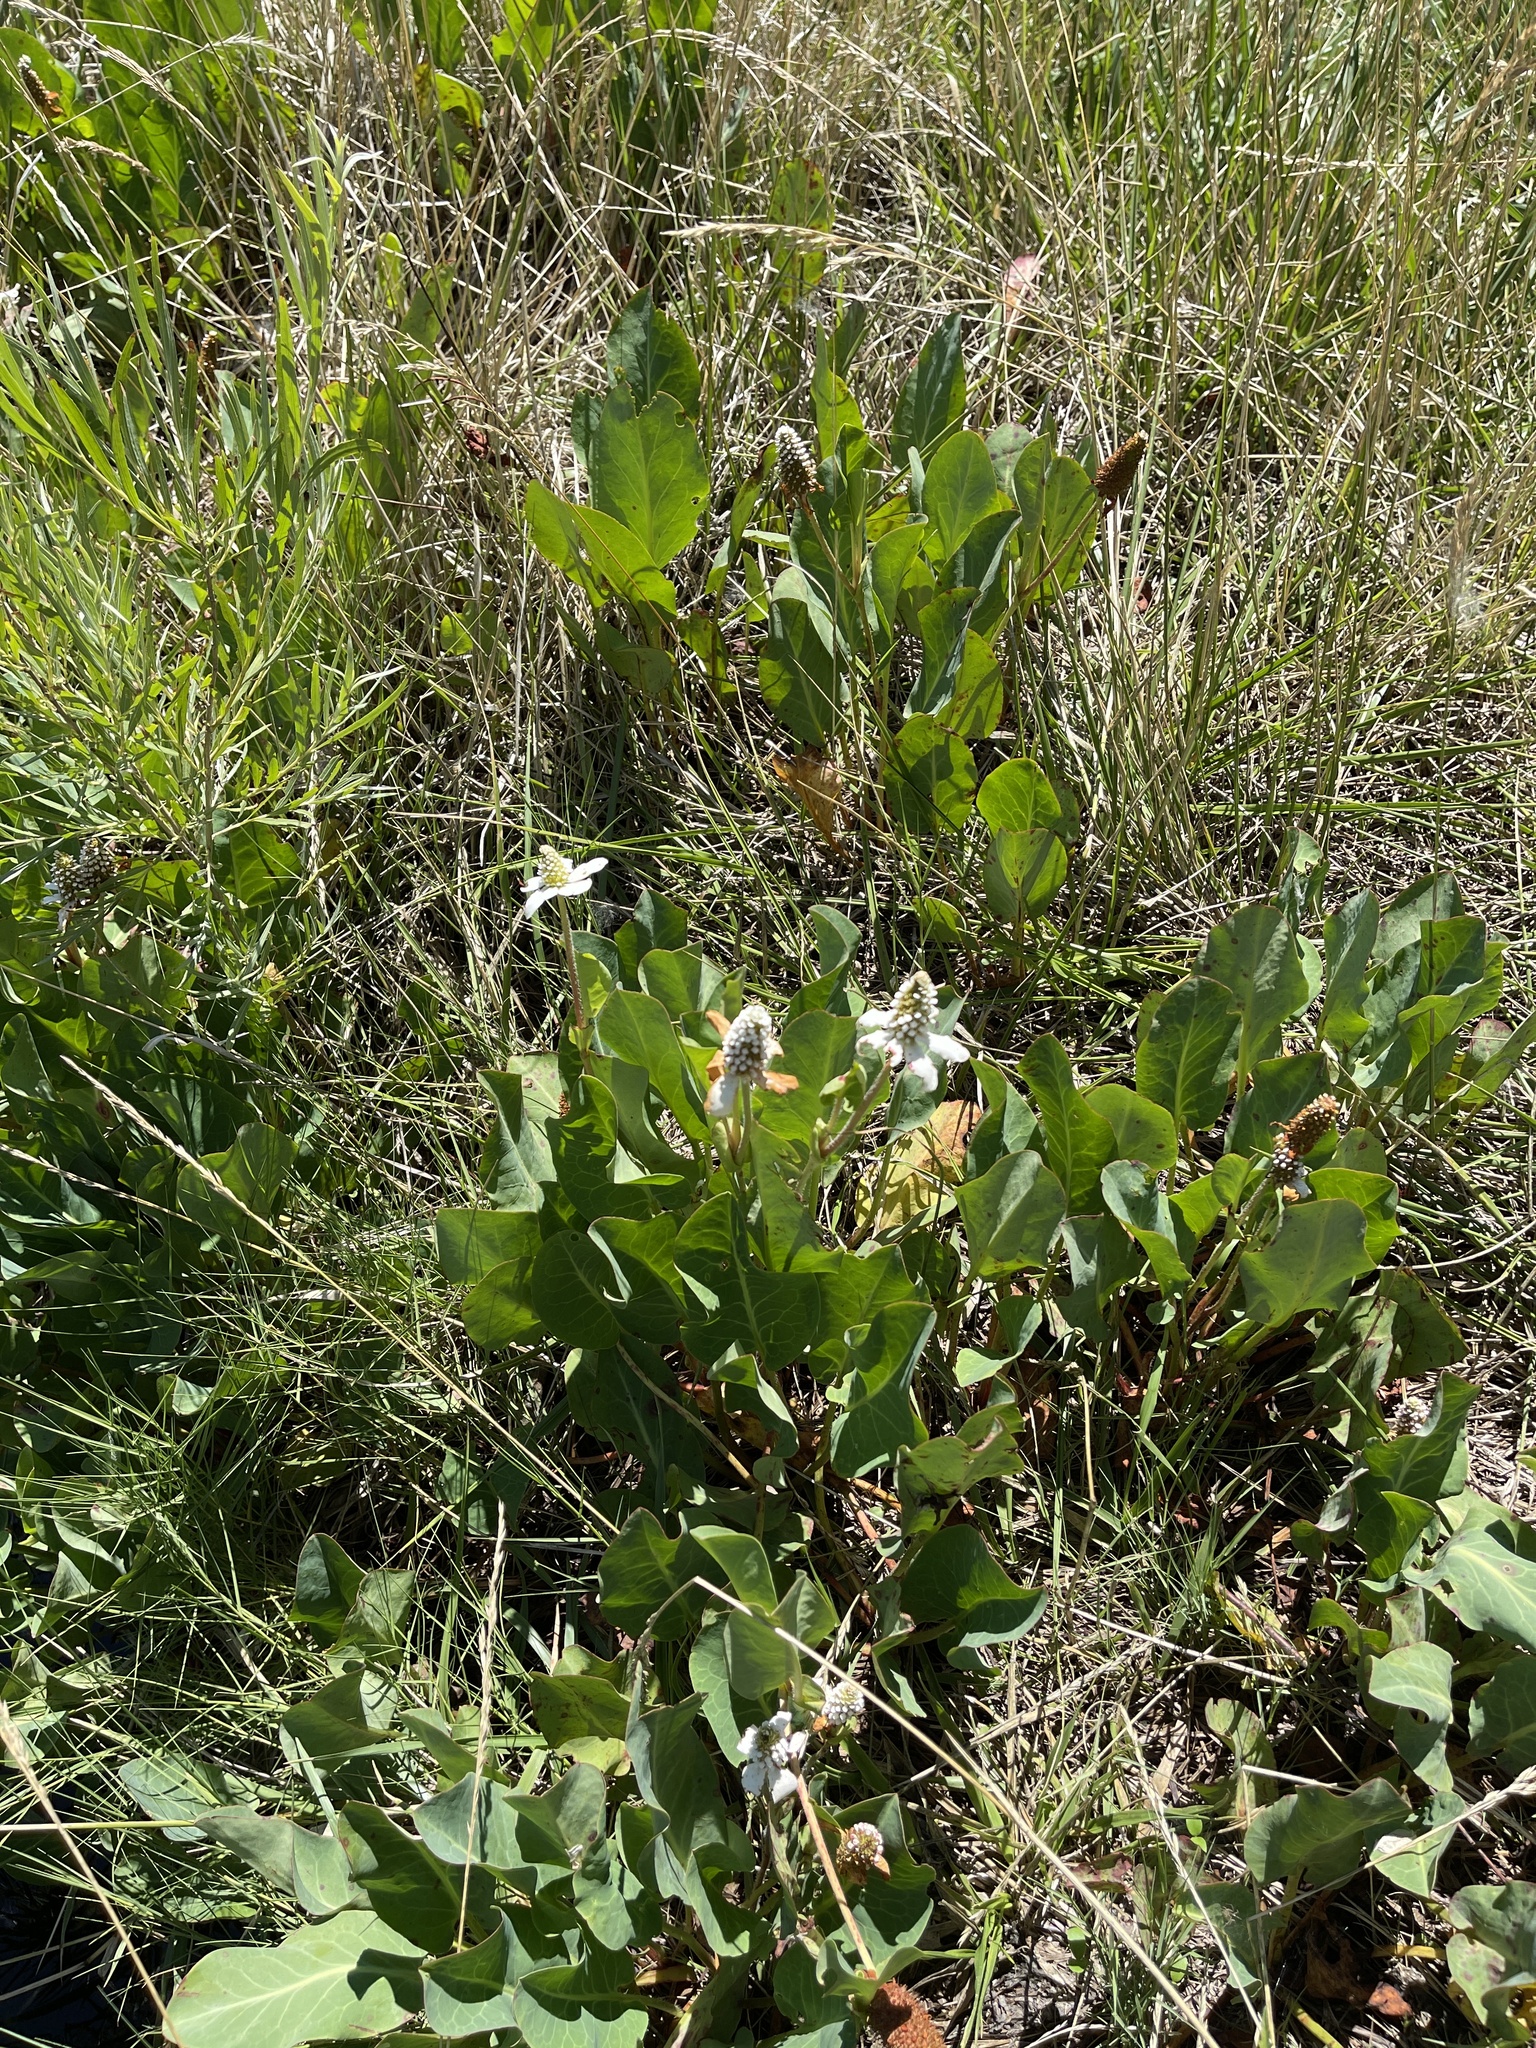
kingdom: Plantae
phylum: Tracheophyta
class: Magnoliopsida
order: Piperales
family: Saururaceae
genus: Anemopsis
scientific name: Anemopsis californica
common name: Apache-beads
